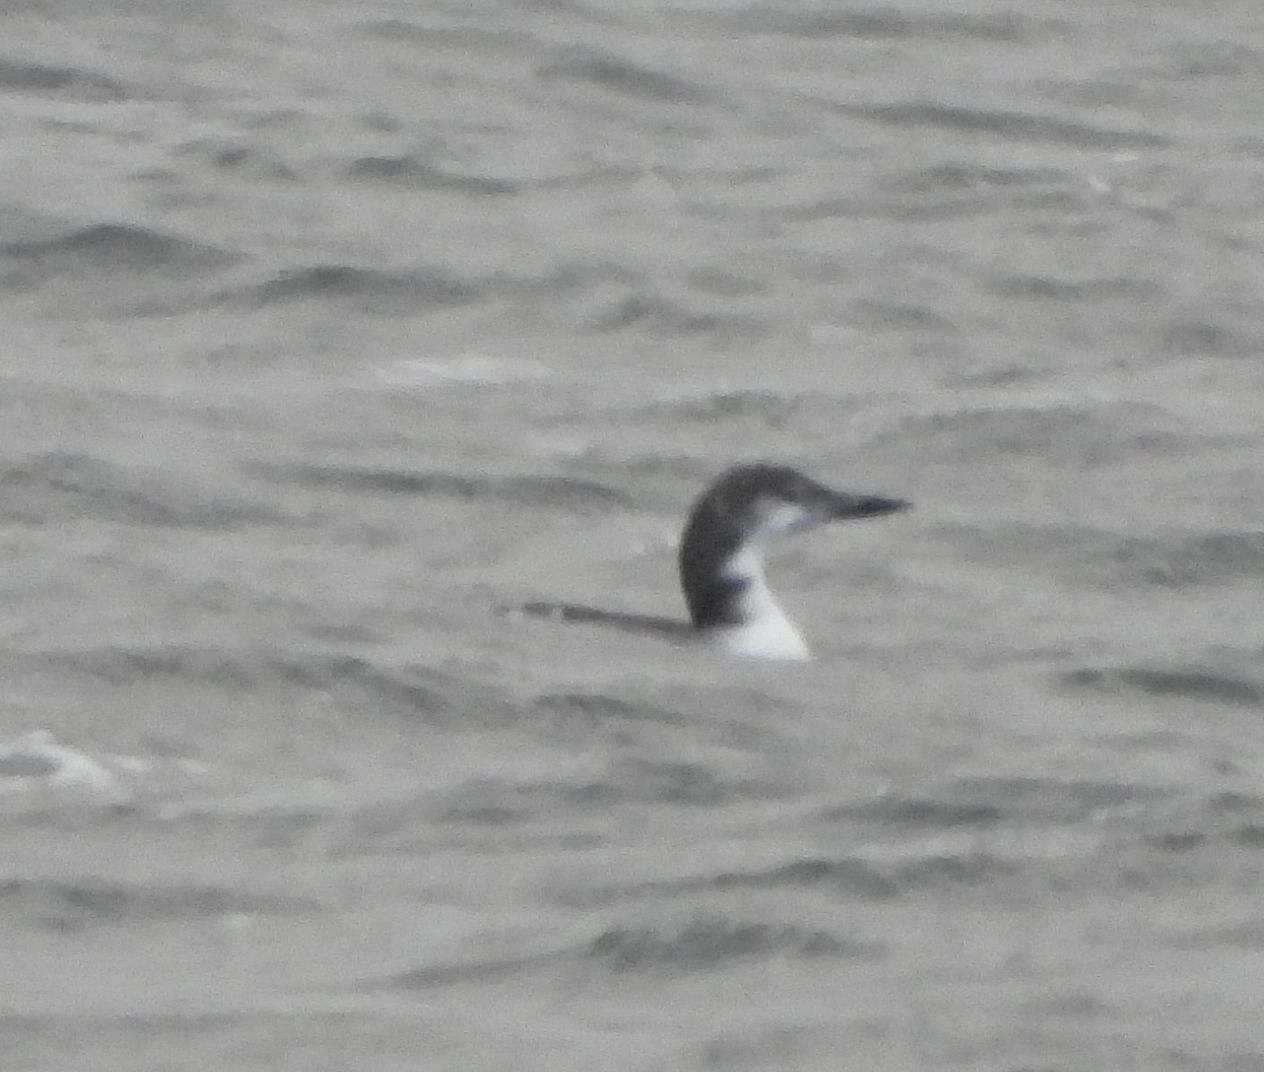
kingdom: Animalia
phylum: Chordata
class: Aves
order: Gaviiformes
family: Gaviidae
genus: Gavia
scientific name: Gavia immer
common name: Common loon
